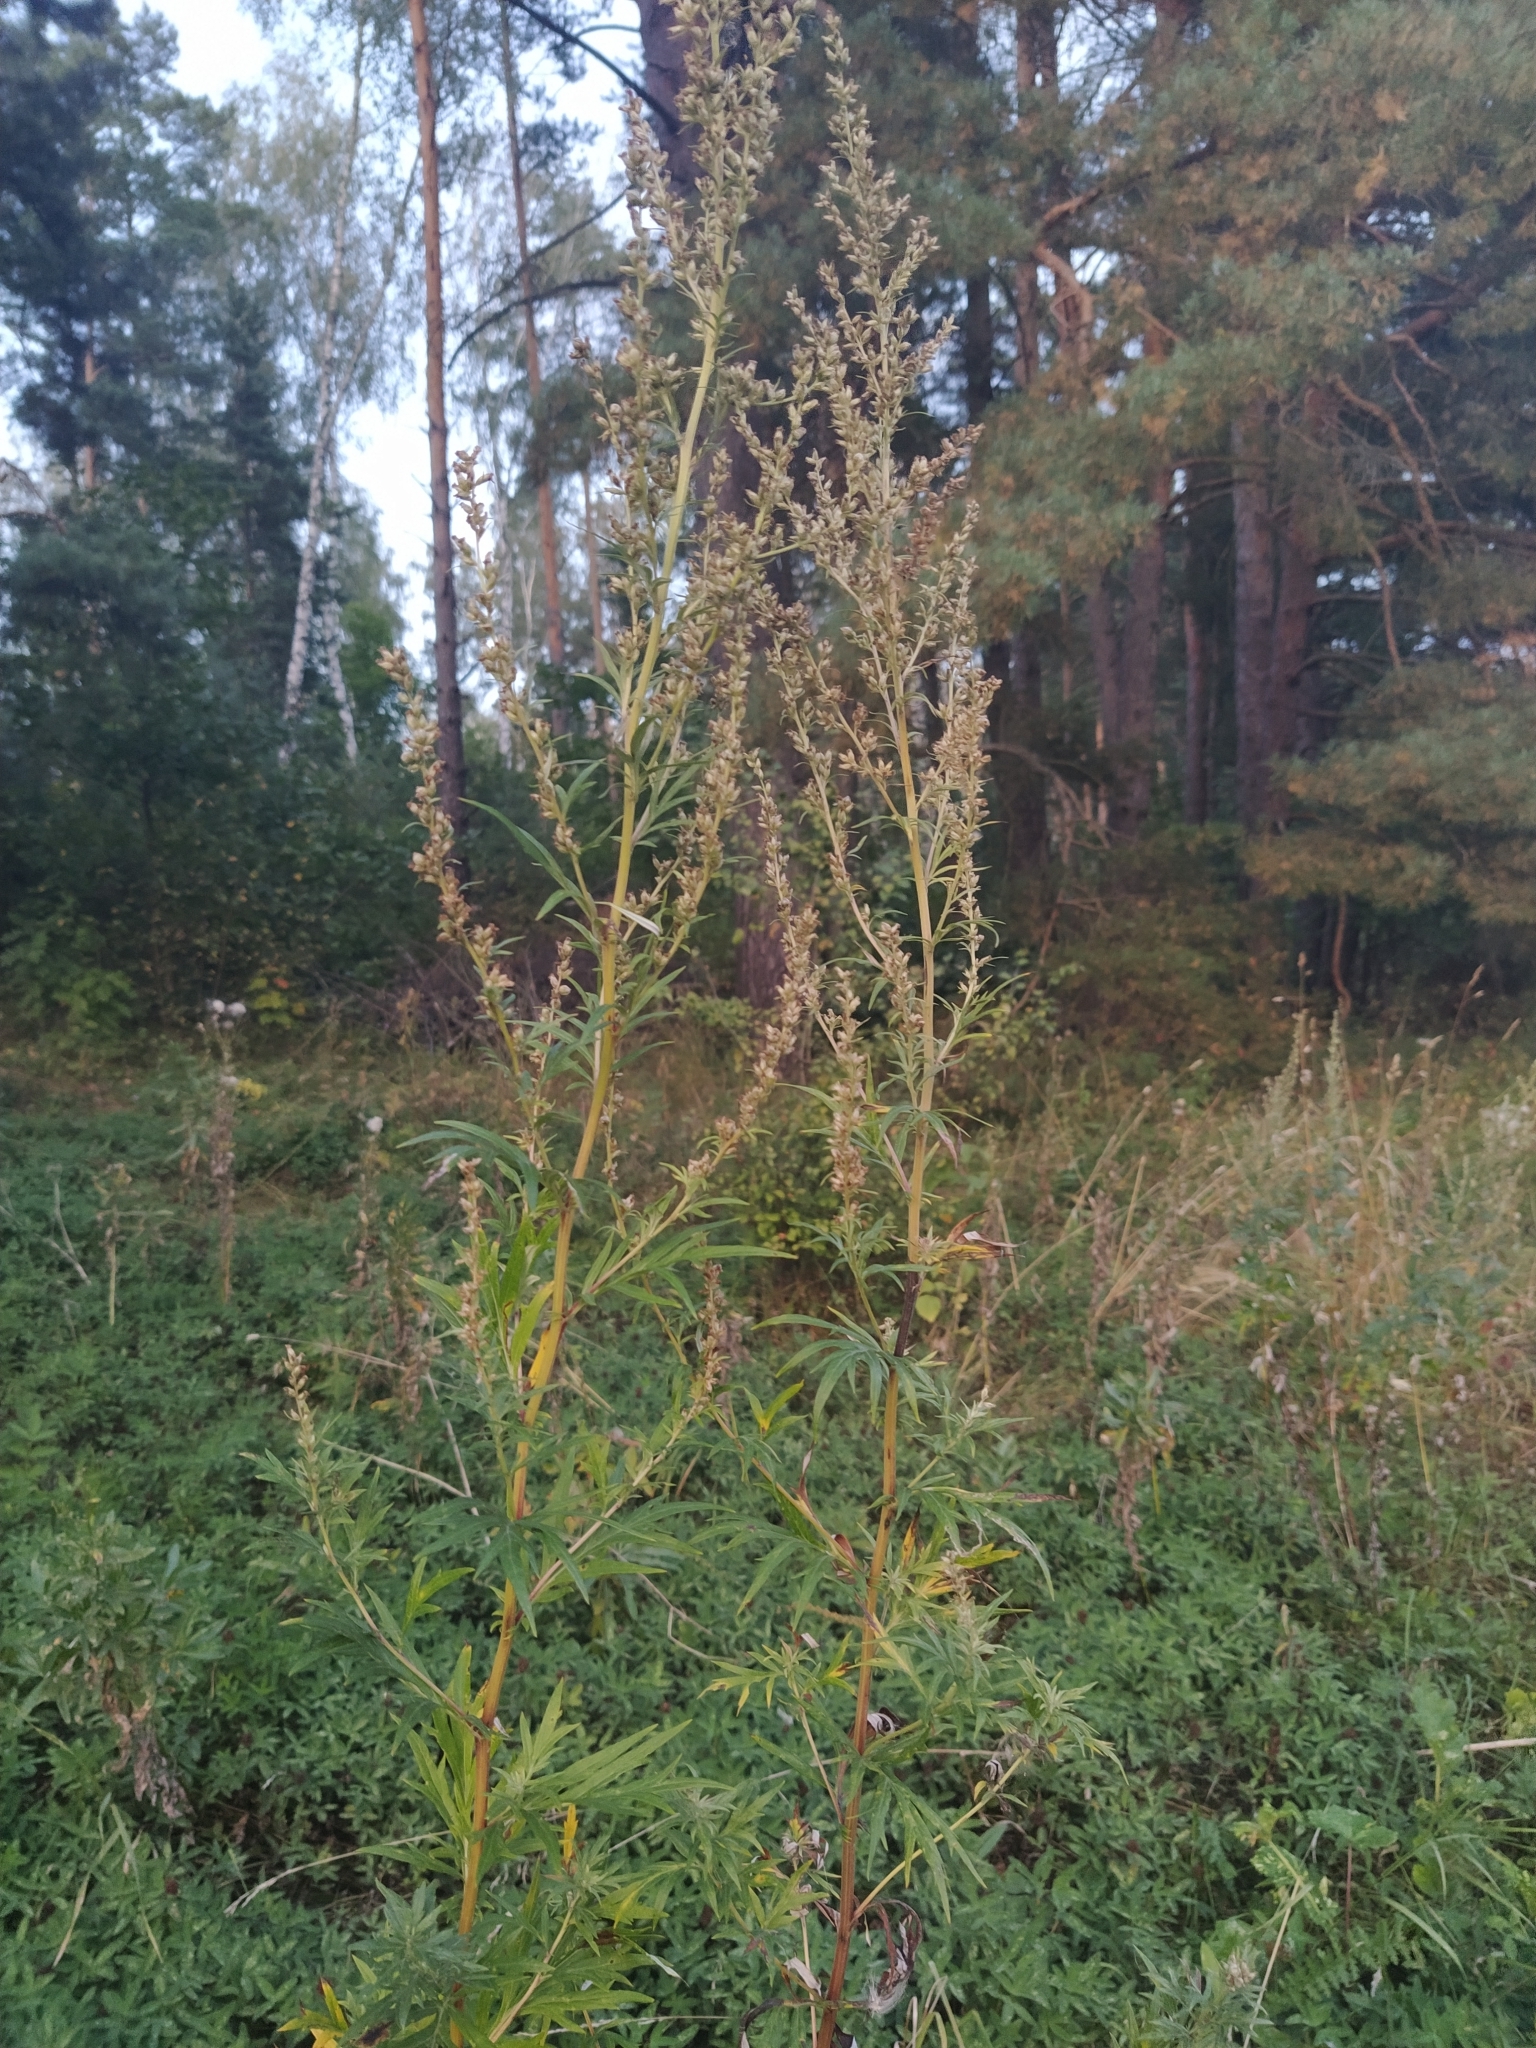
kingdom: Plantae
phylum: Tracheophyta
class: Magnoliopsida
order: Asterales
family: Asteraceae
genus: Artemisia
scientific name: Artemisia vulgaris
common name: Mugwort
